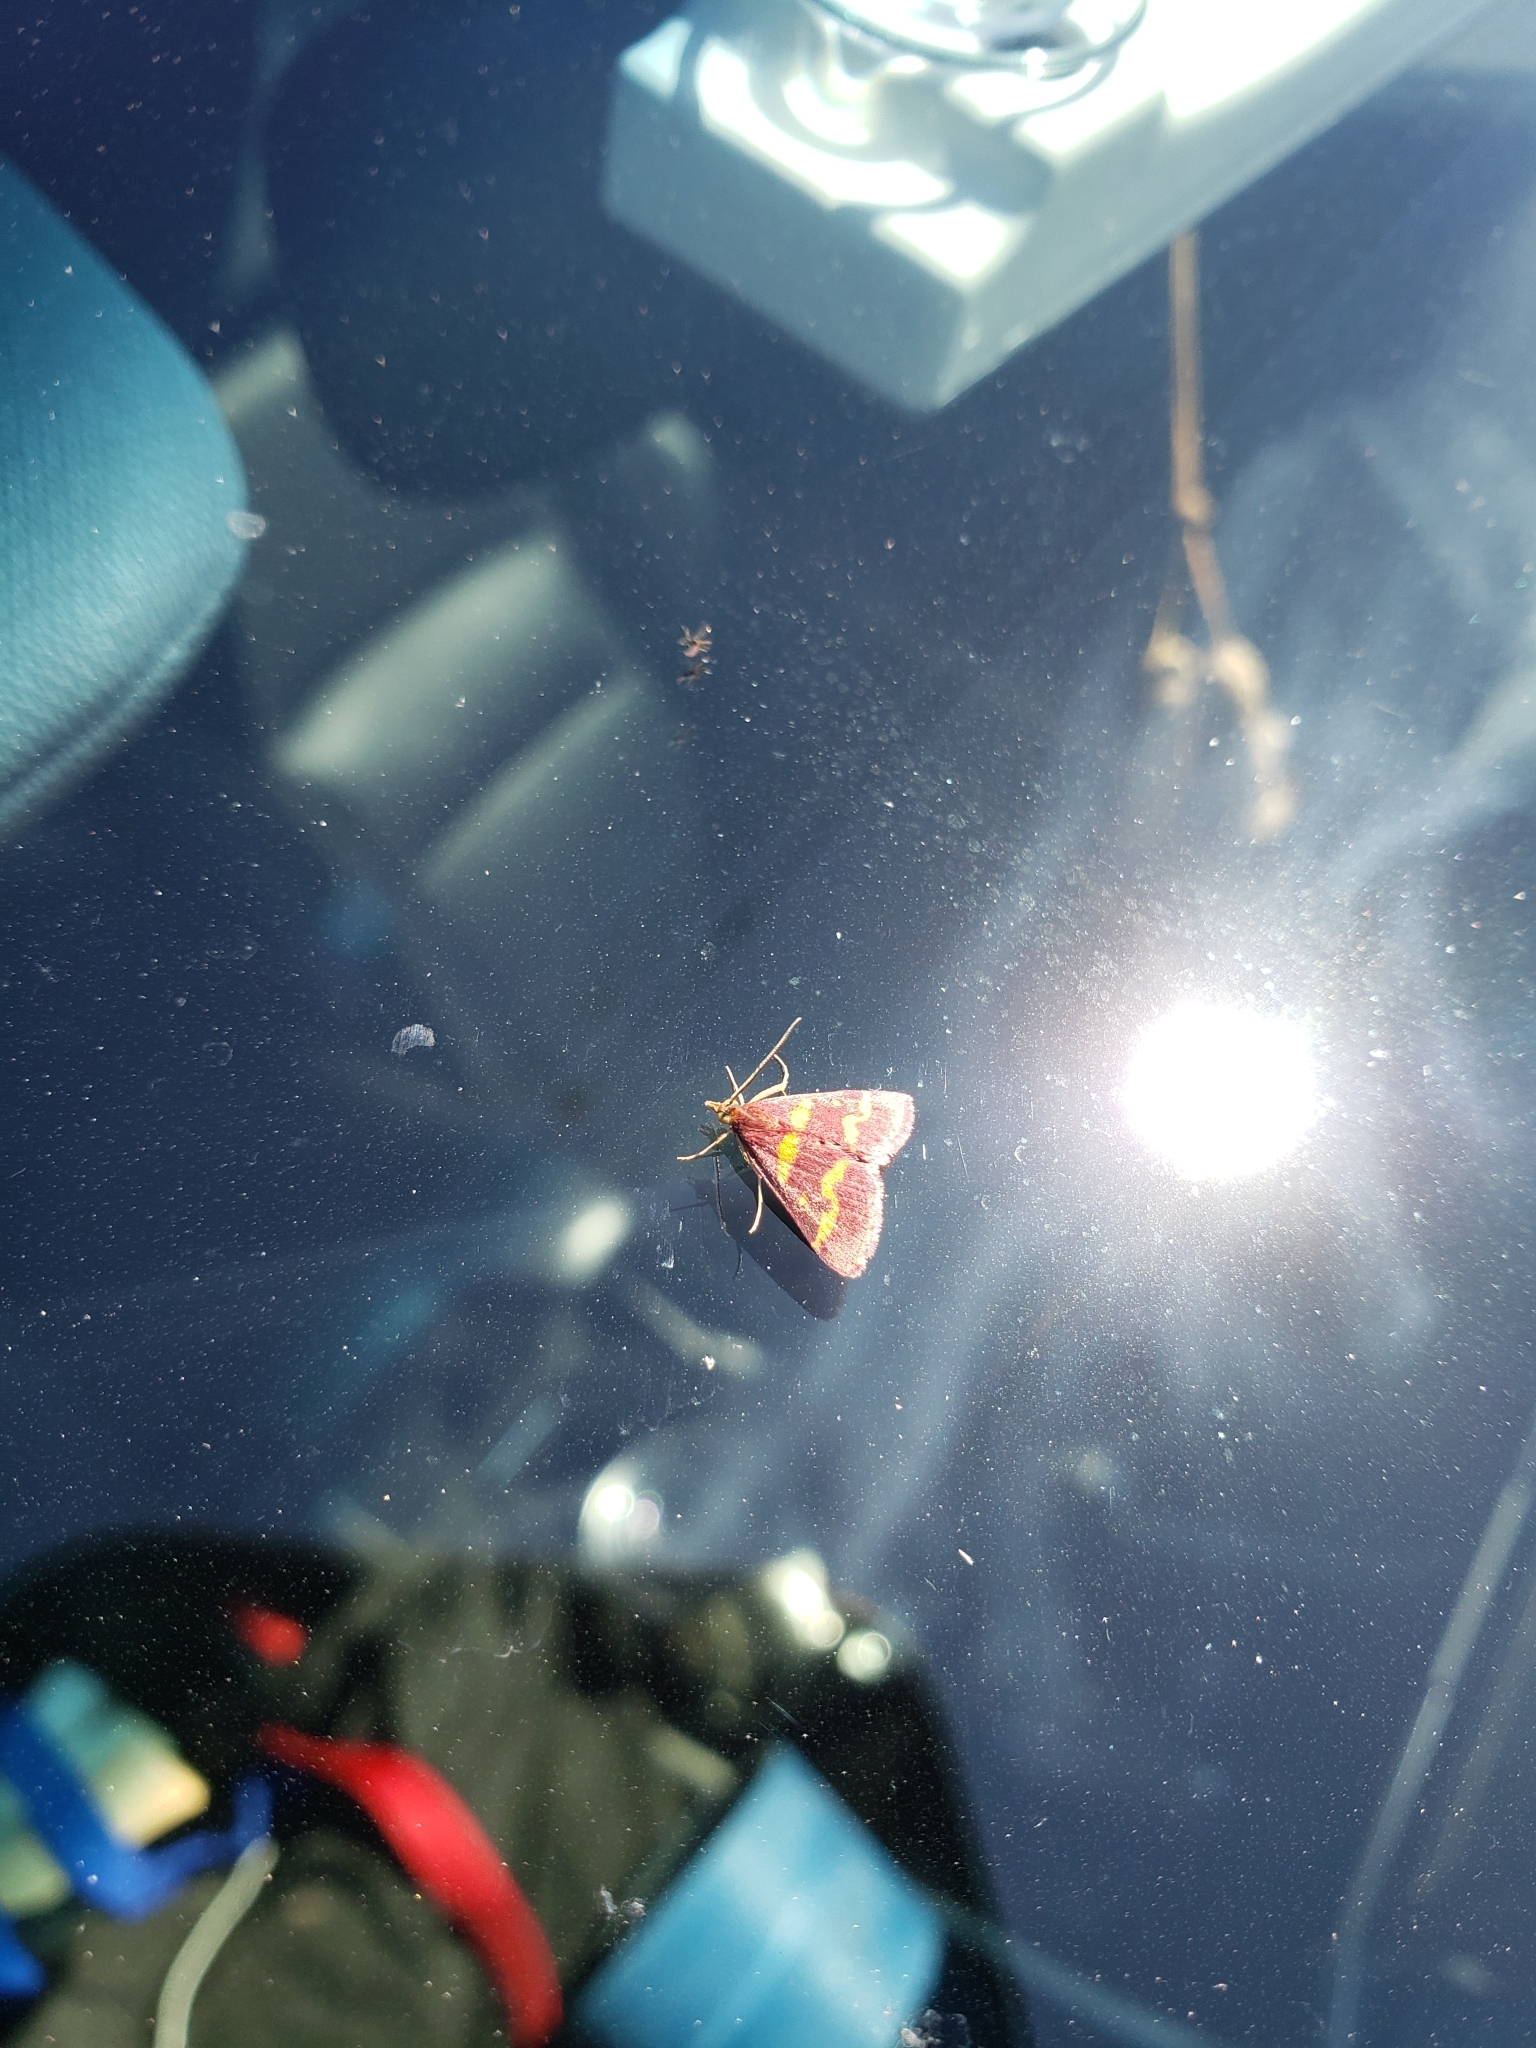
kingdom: Animalia
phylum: Arthropoda
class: Insecta
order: Lepidoptera
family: Crambidae
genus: Pyrausta
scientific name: Pyrausta tyralis
